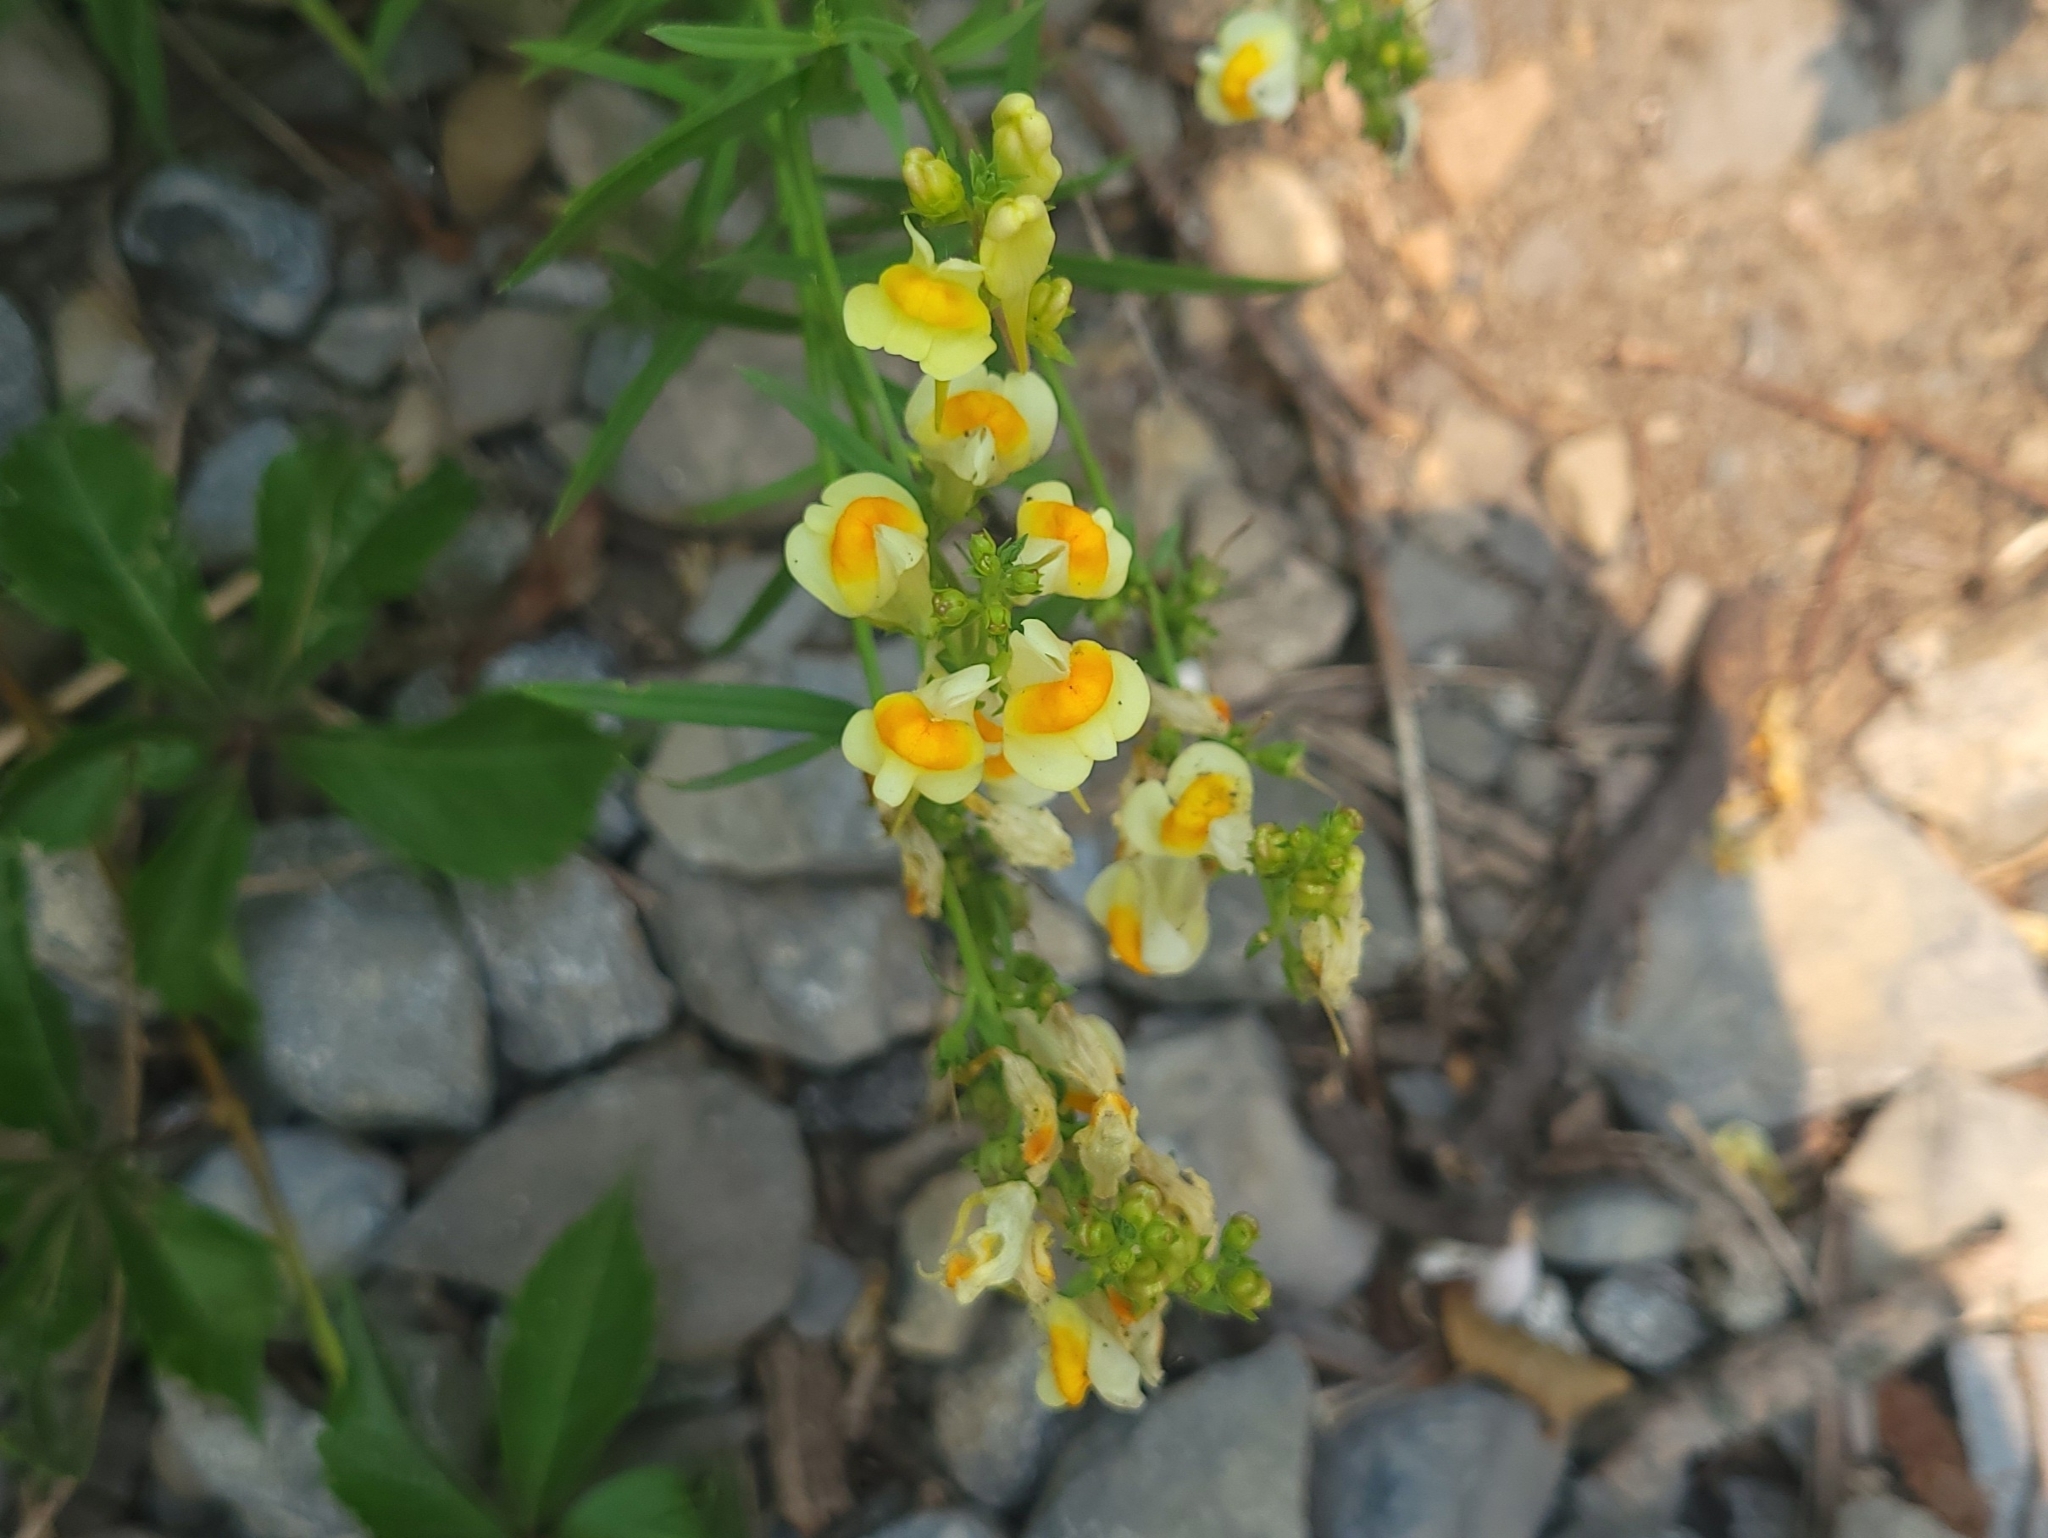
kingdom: Plantae
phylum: Tracheophyta
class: Magnoliopsida
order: Lamiales
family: Plantaginaceae
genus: Linaria
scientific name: Linaria vulgaris
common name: Butter and eggs
